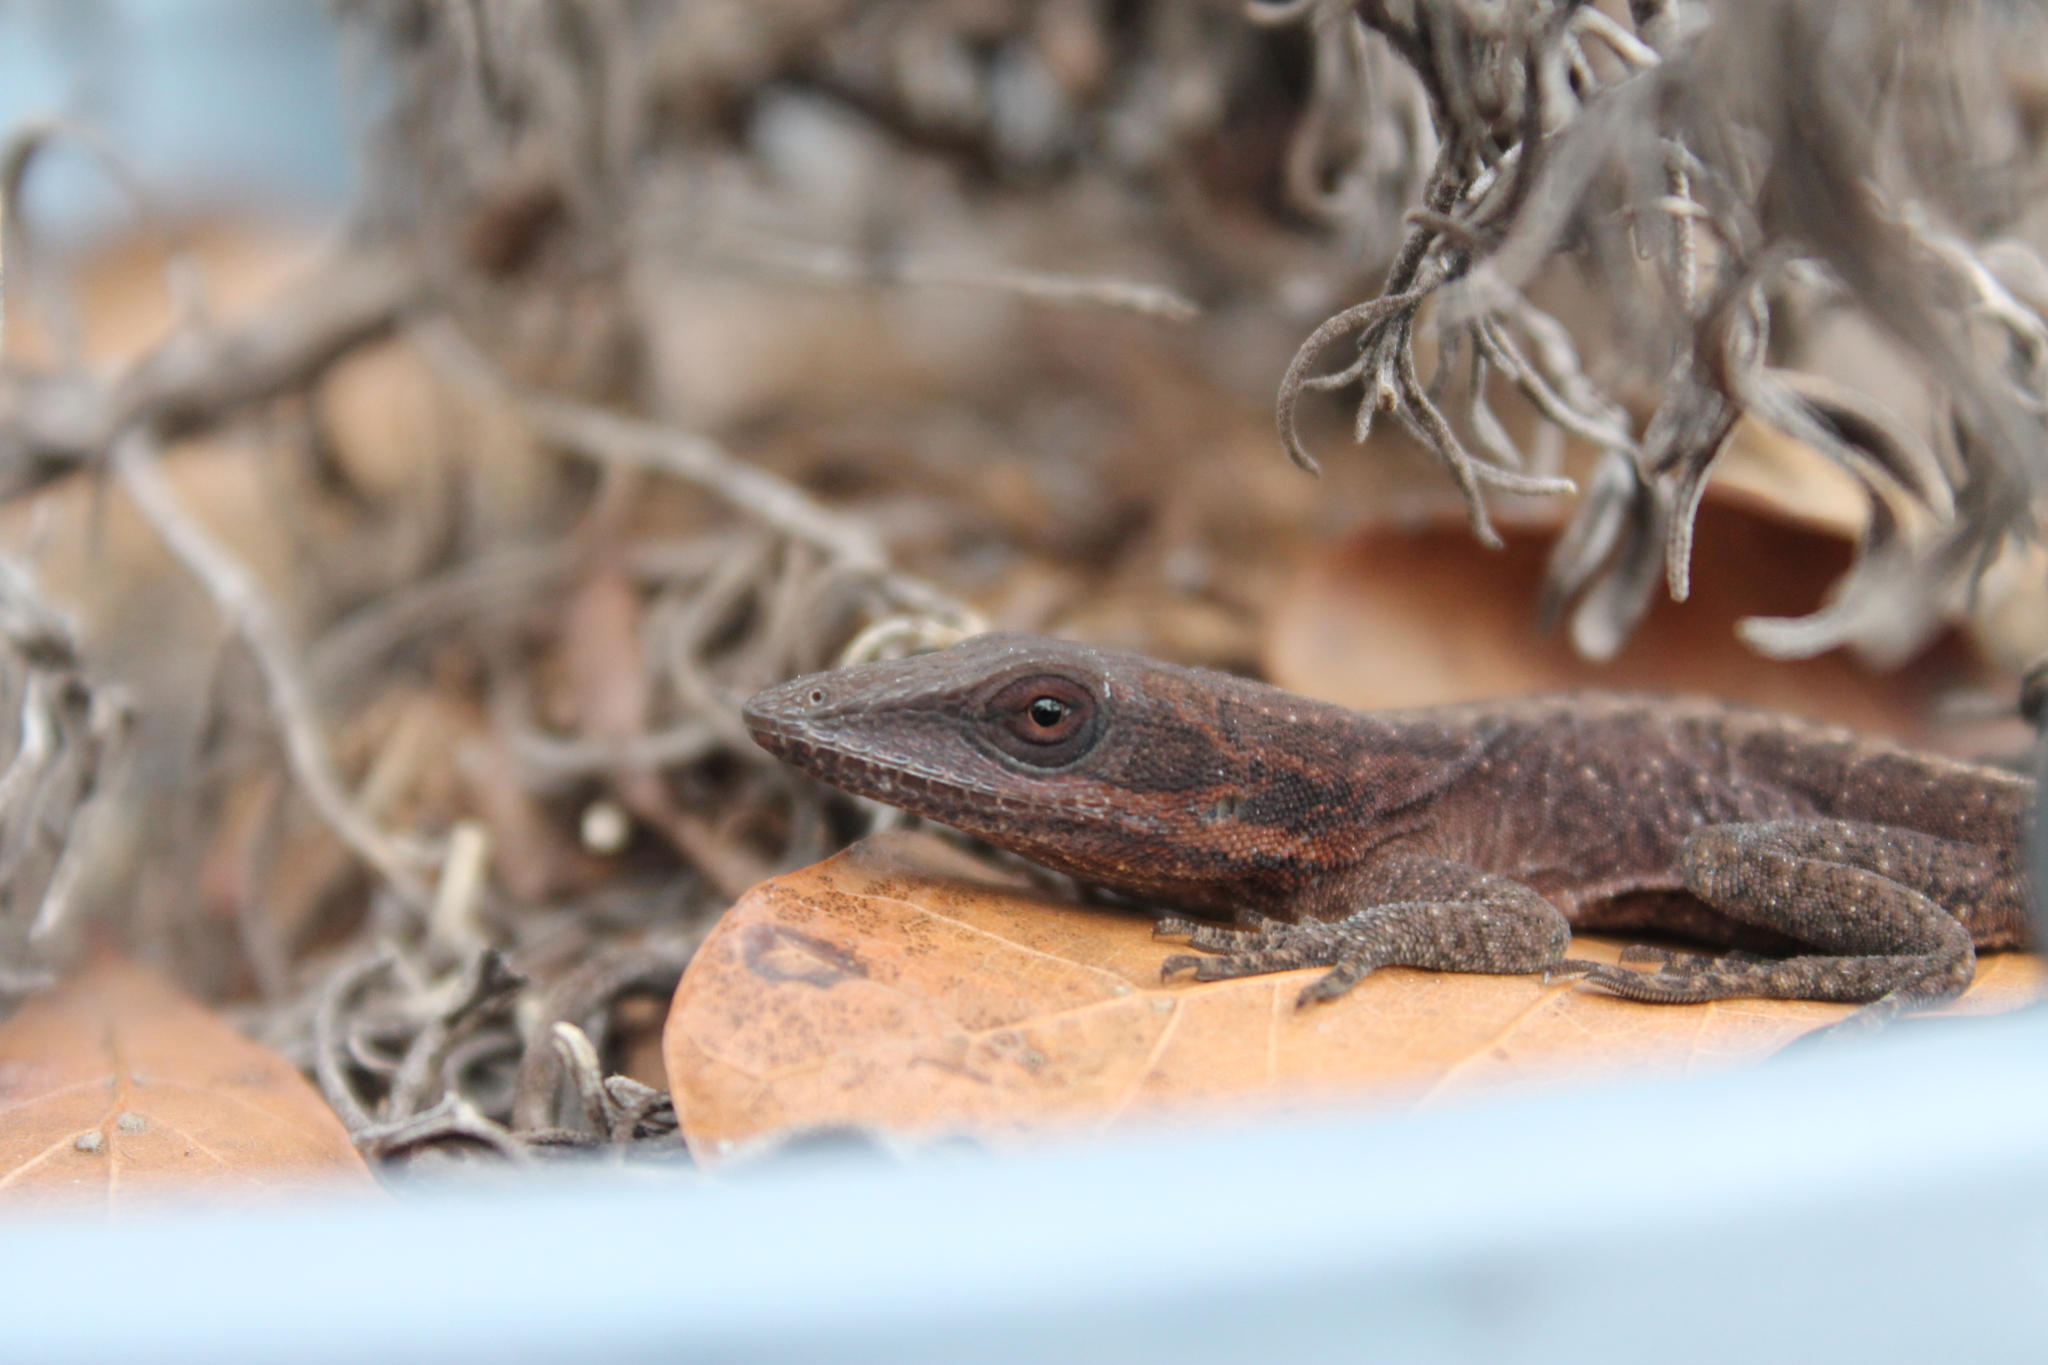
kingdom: Animalia
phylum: Chordata
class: Squamata
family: Dactyloidae
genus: Anolis
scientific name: Anolis carolinensis
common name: Green anole
